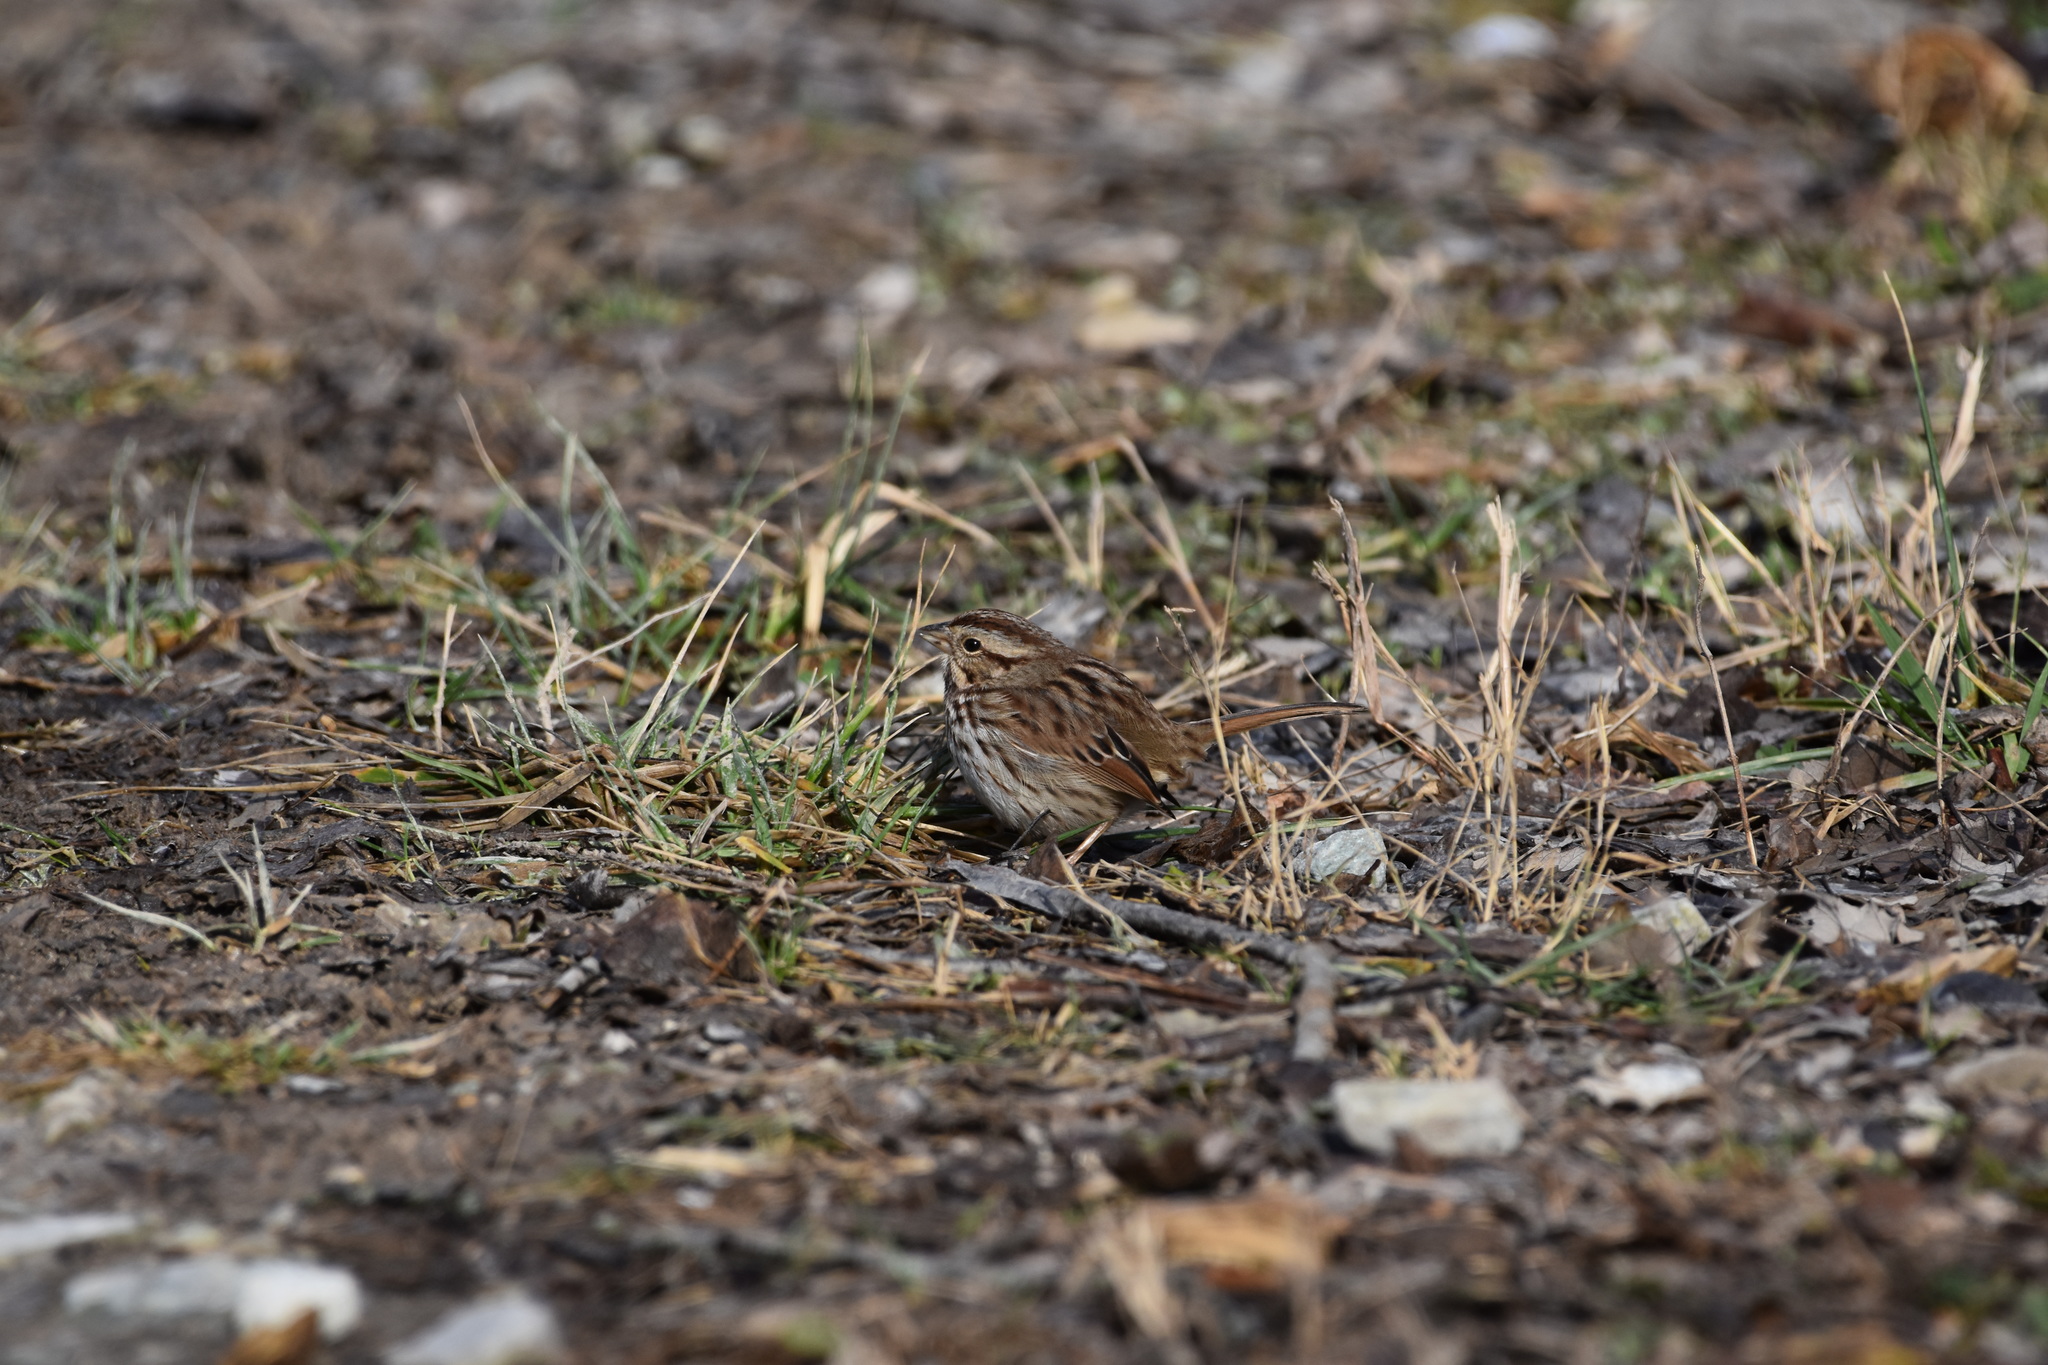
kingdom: Animalia
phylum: Chordata
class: Aves
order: Passeriformes
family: Passerellidae
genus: Melospiza
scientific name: Melospiza melodia
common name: Song sparrow
